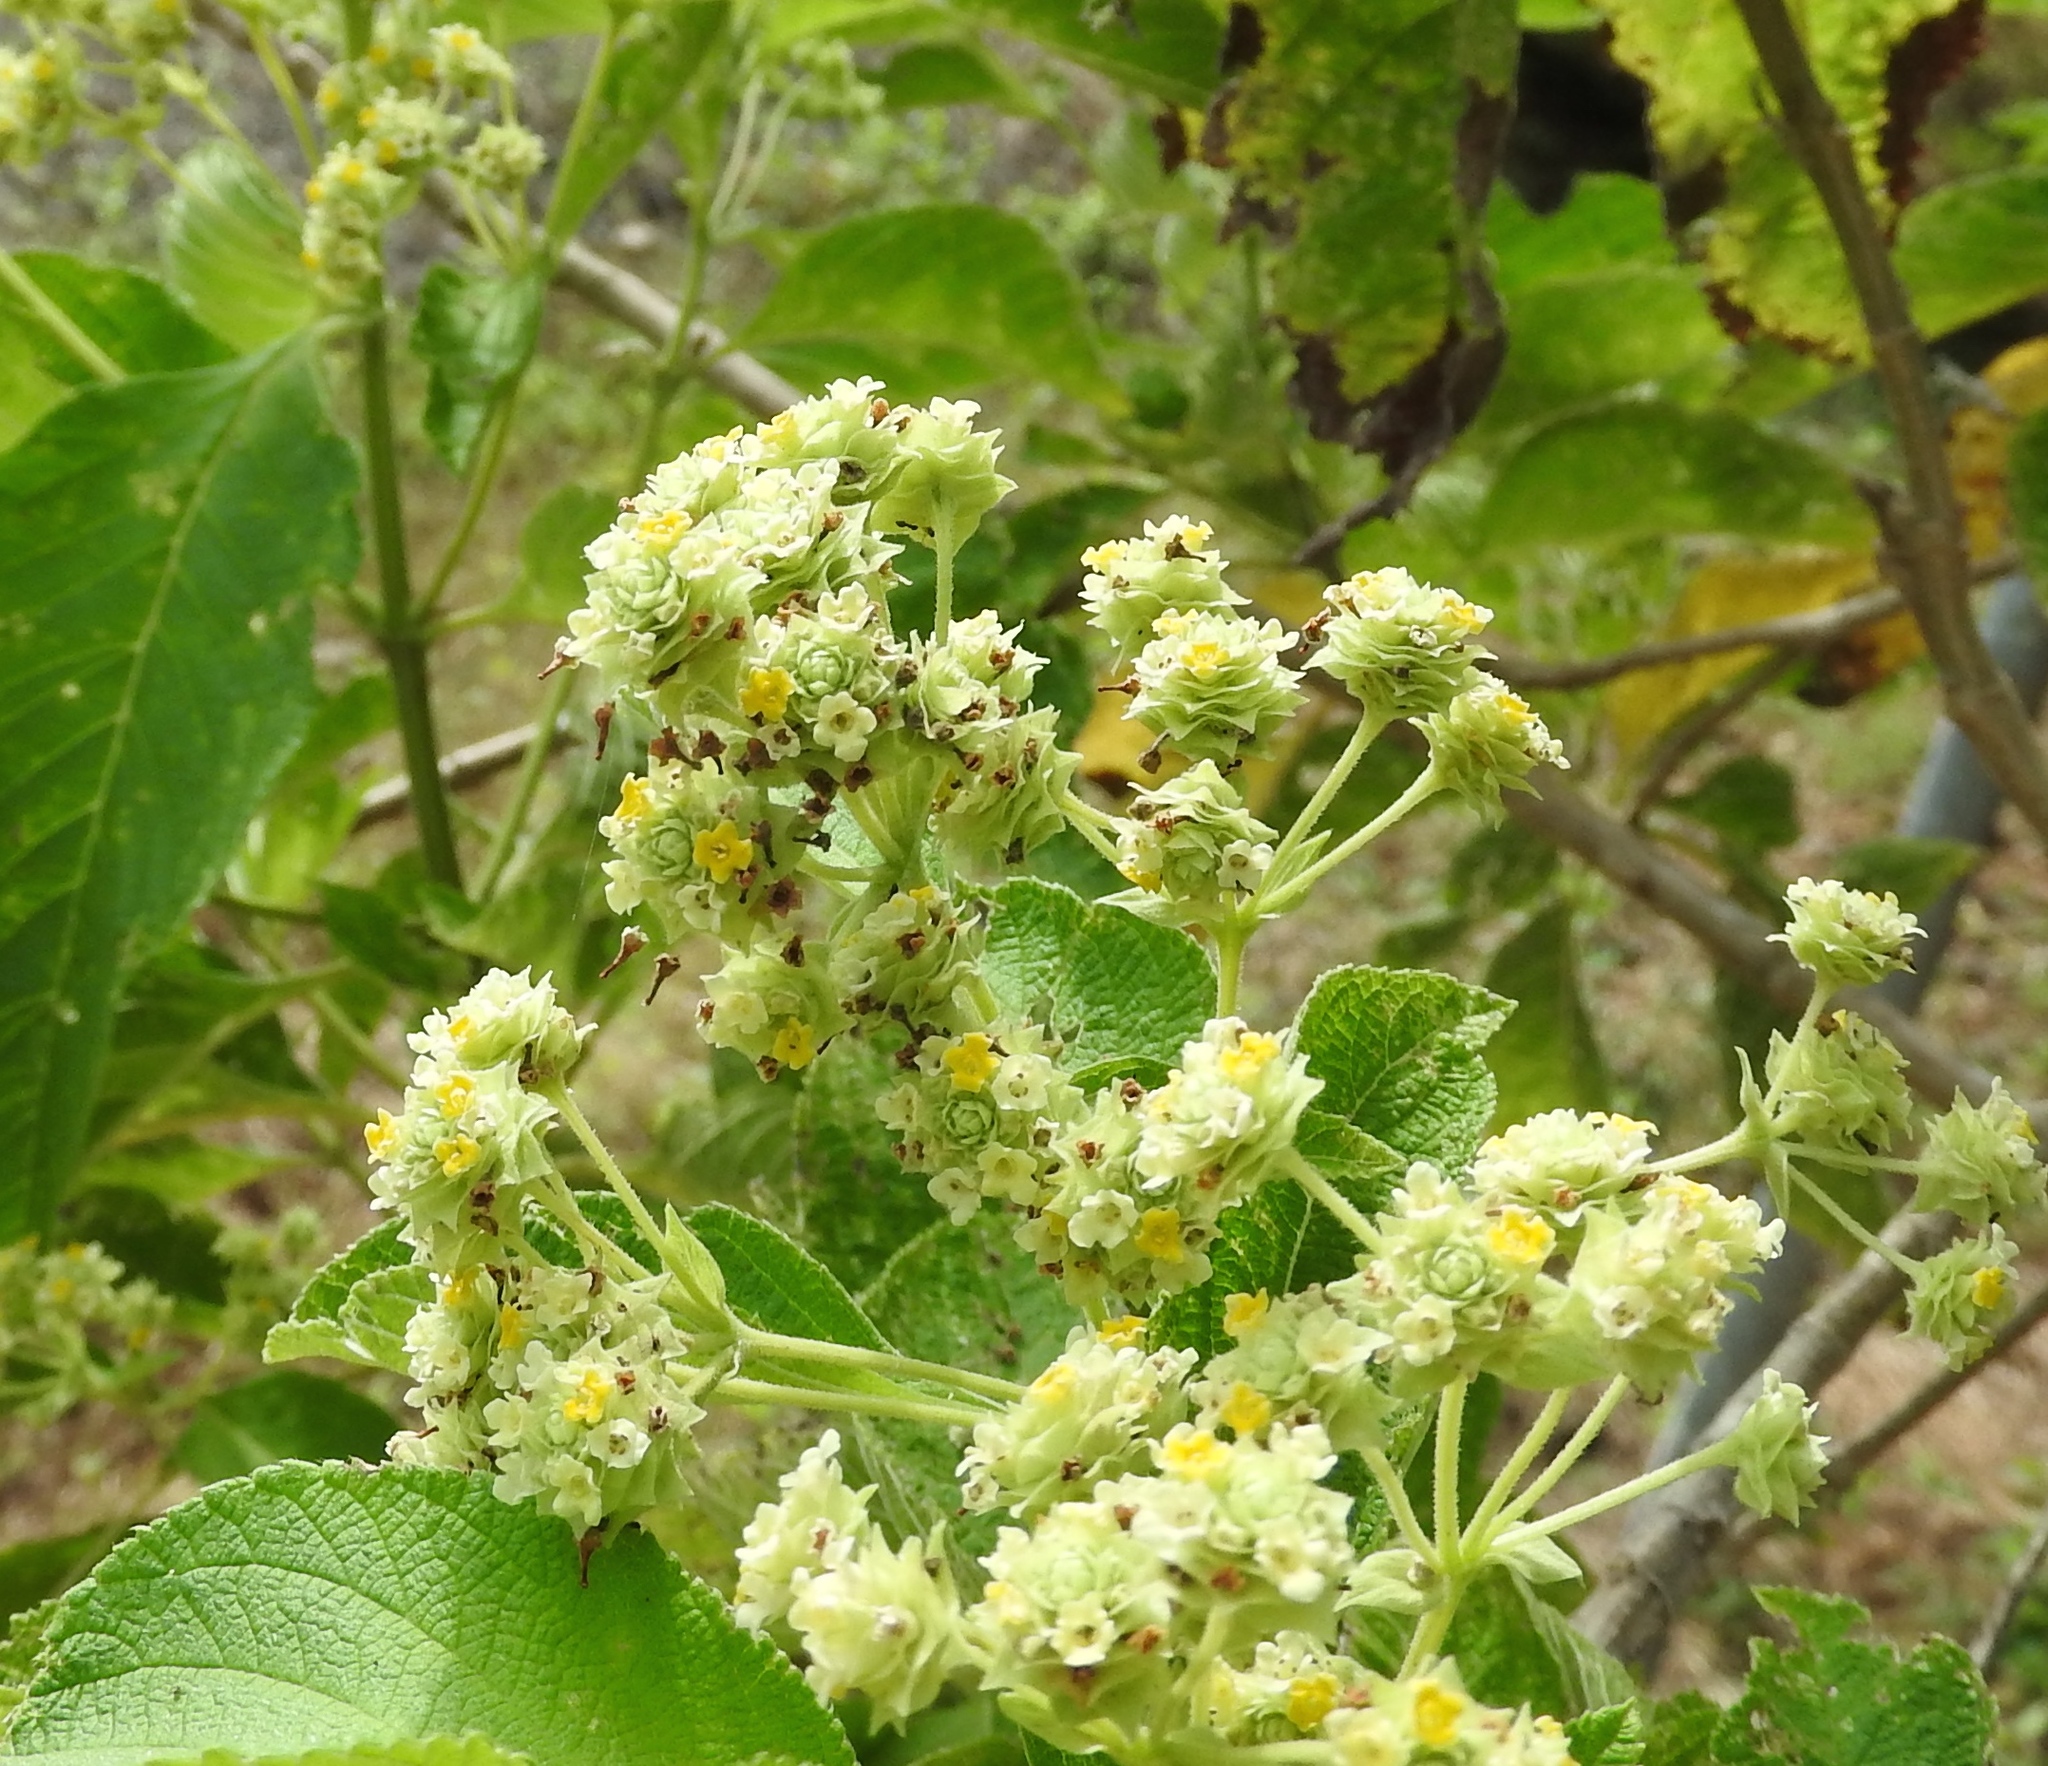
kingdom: Plantae
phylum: Tracheophyta
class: Magnoliopsida
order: Lamiales
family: Verbenaceae
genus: Lippia
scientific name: Lippia umbellata
